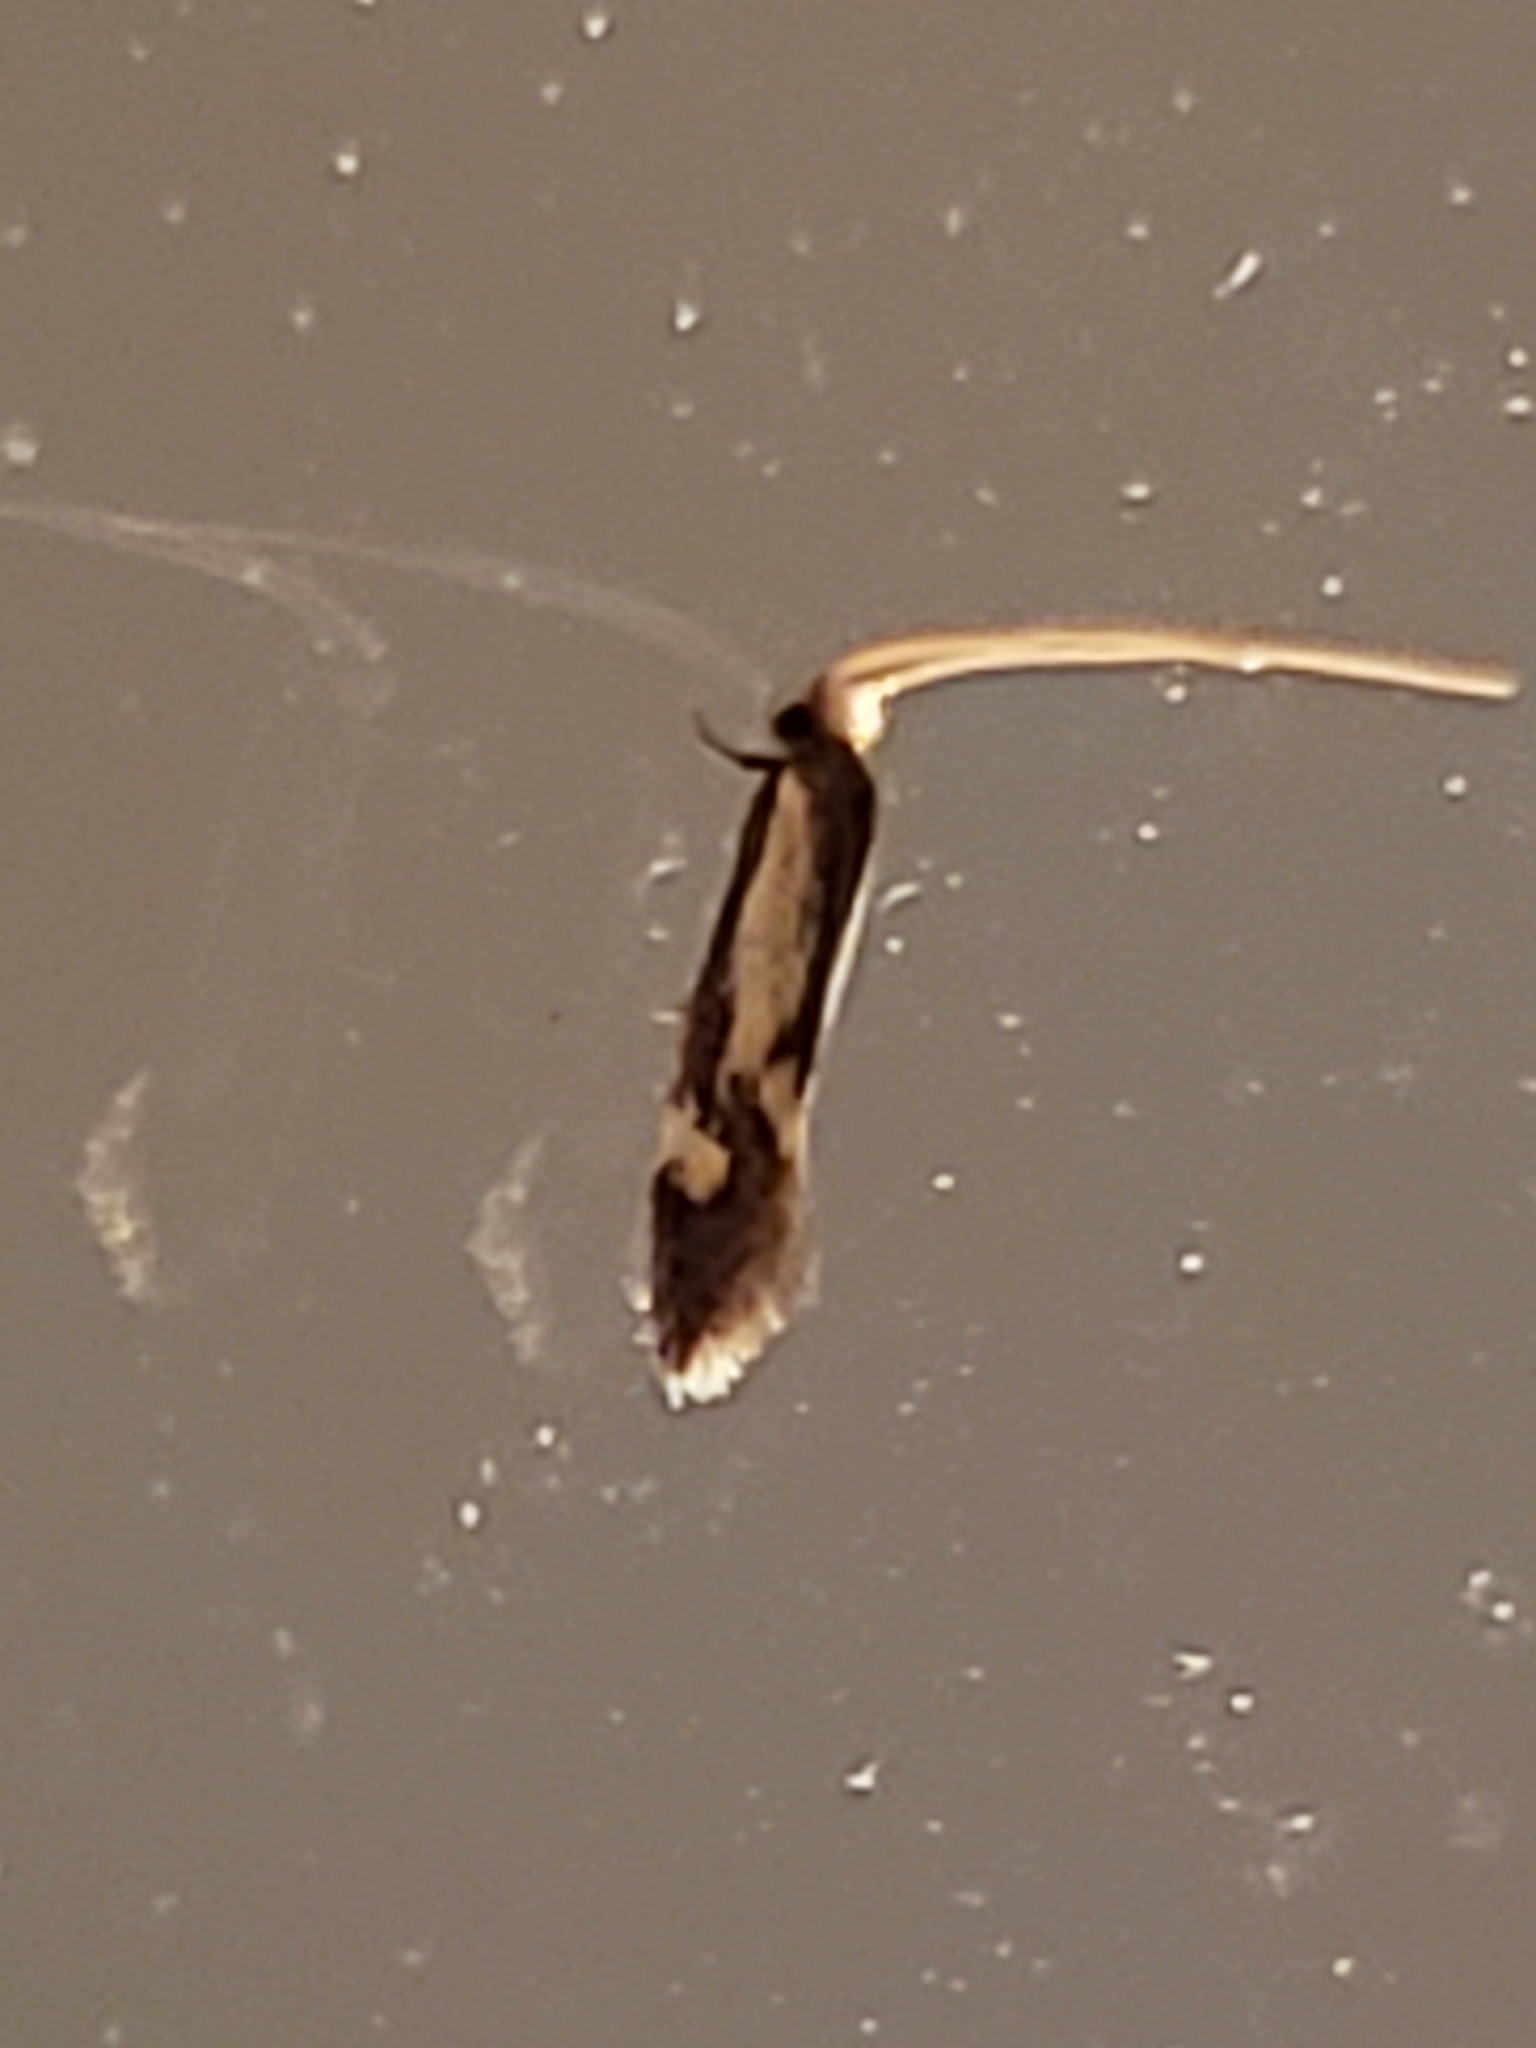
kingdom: Animalia
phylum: Arthropoda
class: Insecta
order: Lepidoptera
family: Meessiidae
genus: Isocorypha
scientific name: Isocorypha mediostriatella
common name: Old gold isocorypha moth
